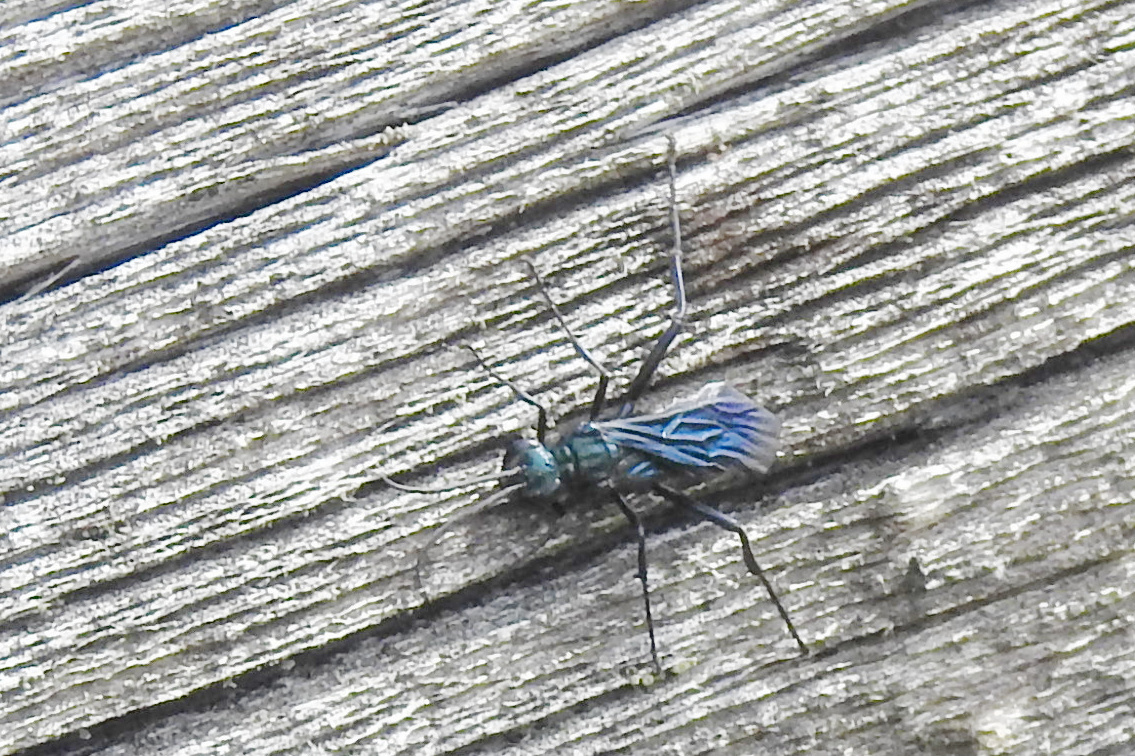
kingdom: Animalia
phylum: Arthropoda
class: Insecta
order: Hymenoptera
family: Sphecidae
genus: Chalybion
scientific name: Chalybion californicum
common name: Mud dauber
